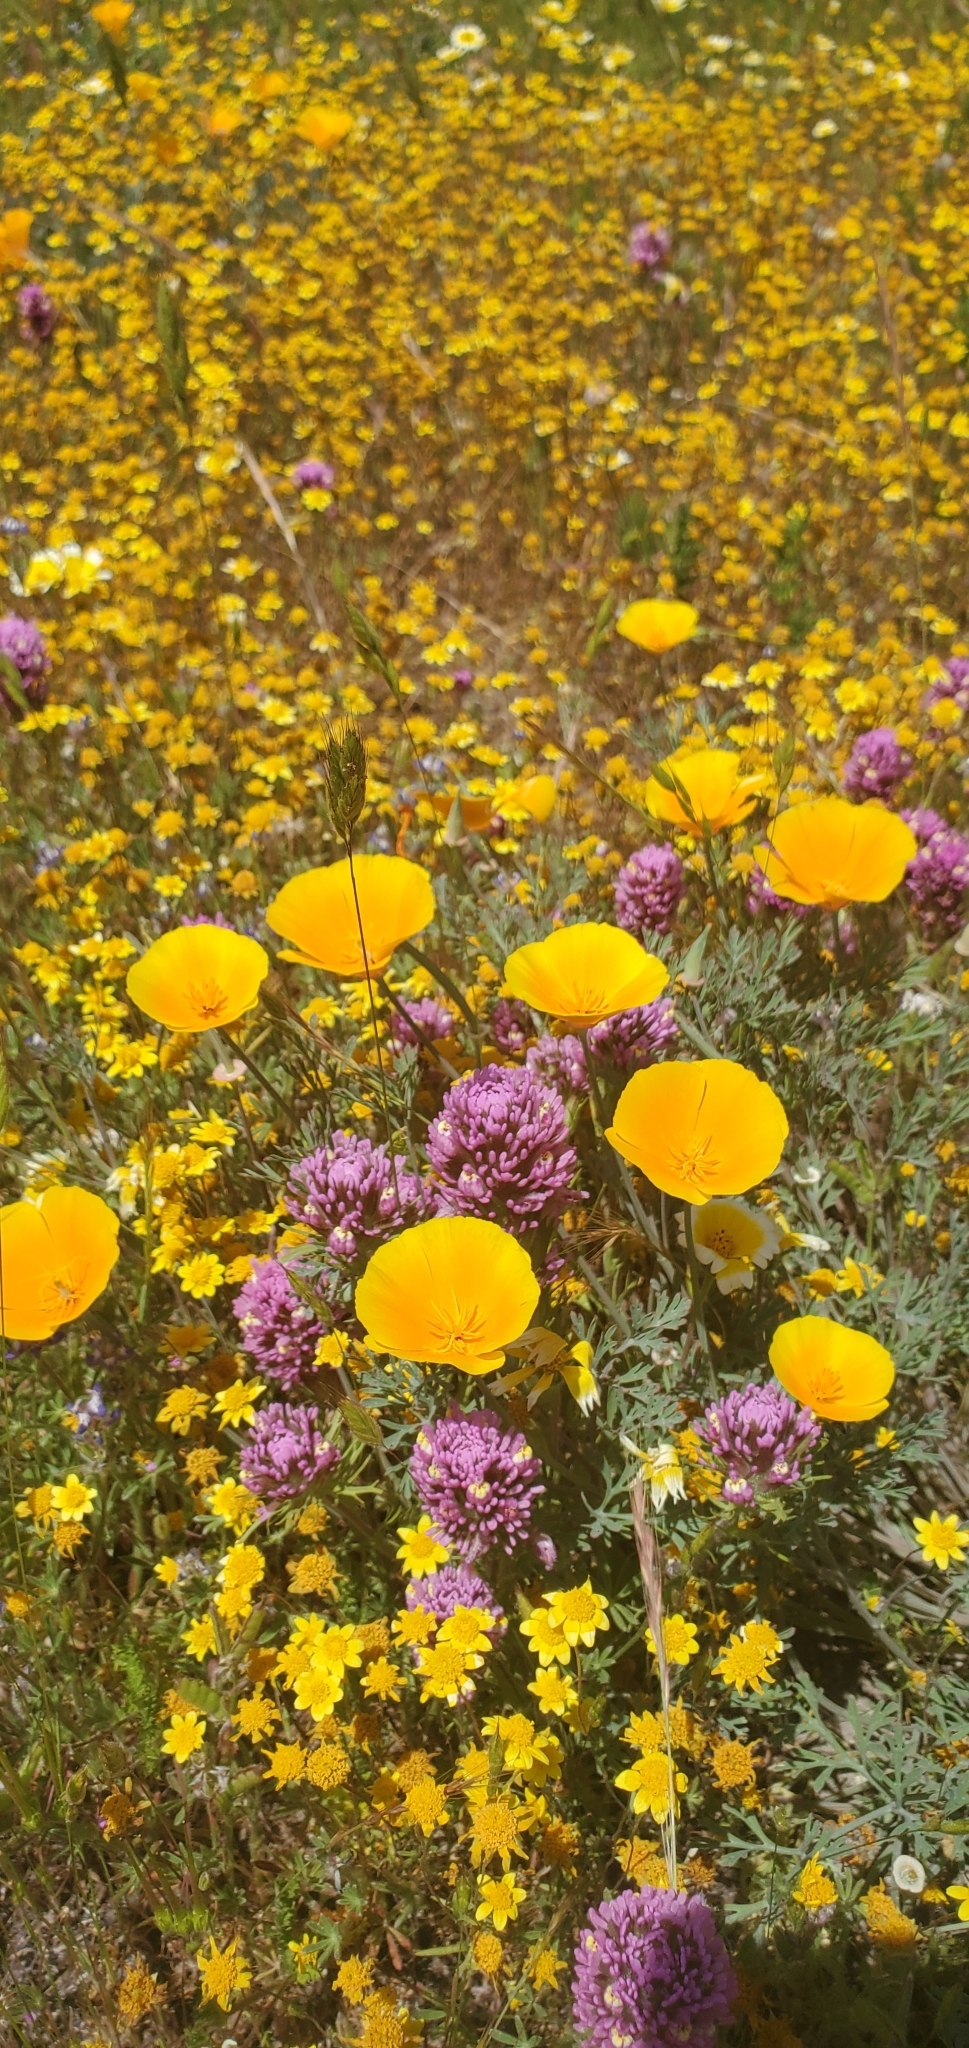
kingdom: Plantae
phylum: Tracheophyta
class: Magnoliopsida
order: Ranunculales
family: Papaveraceae
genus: Eschscholzia
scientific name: Eschscholzia californica
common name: California poppy
